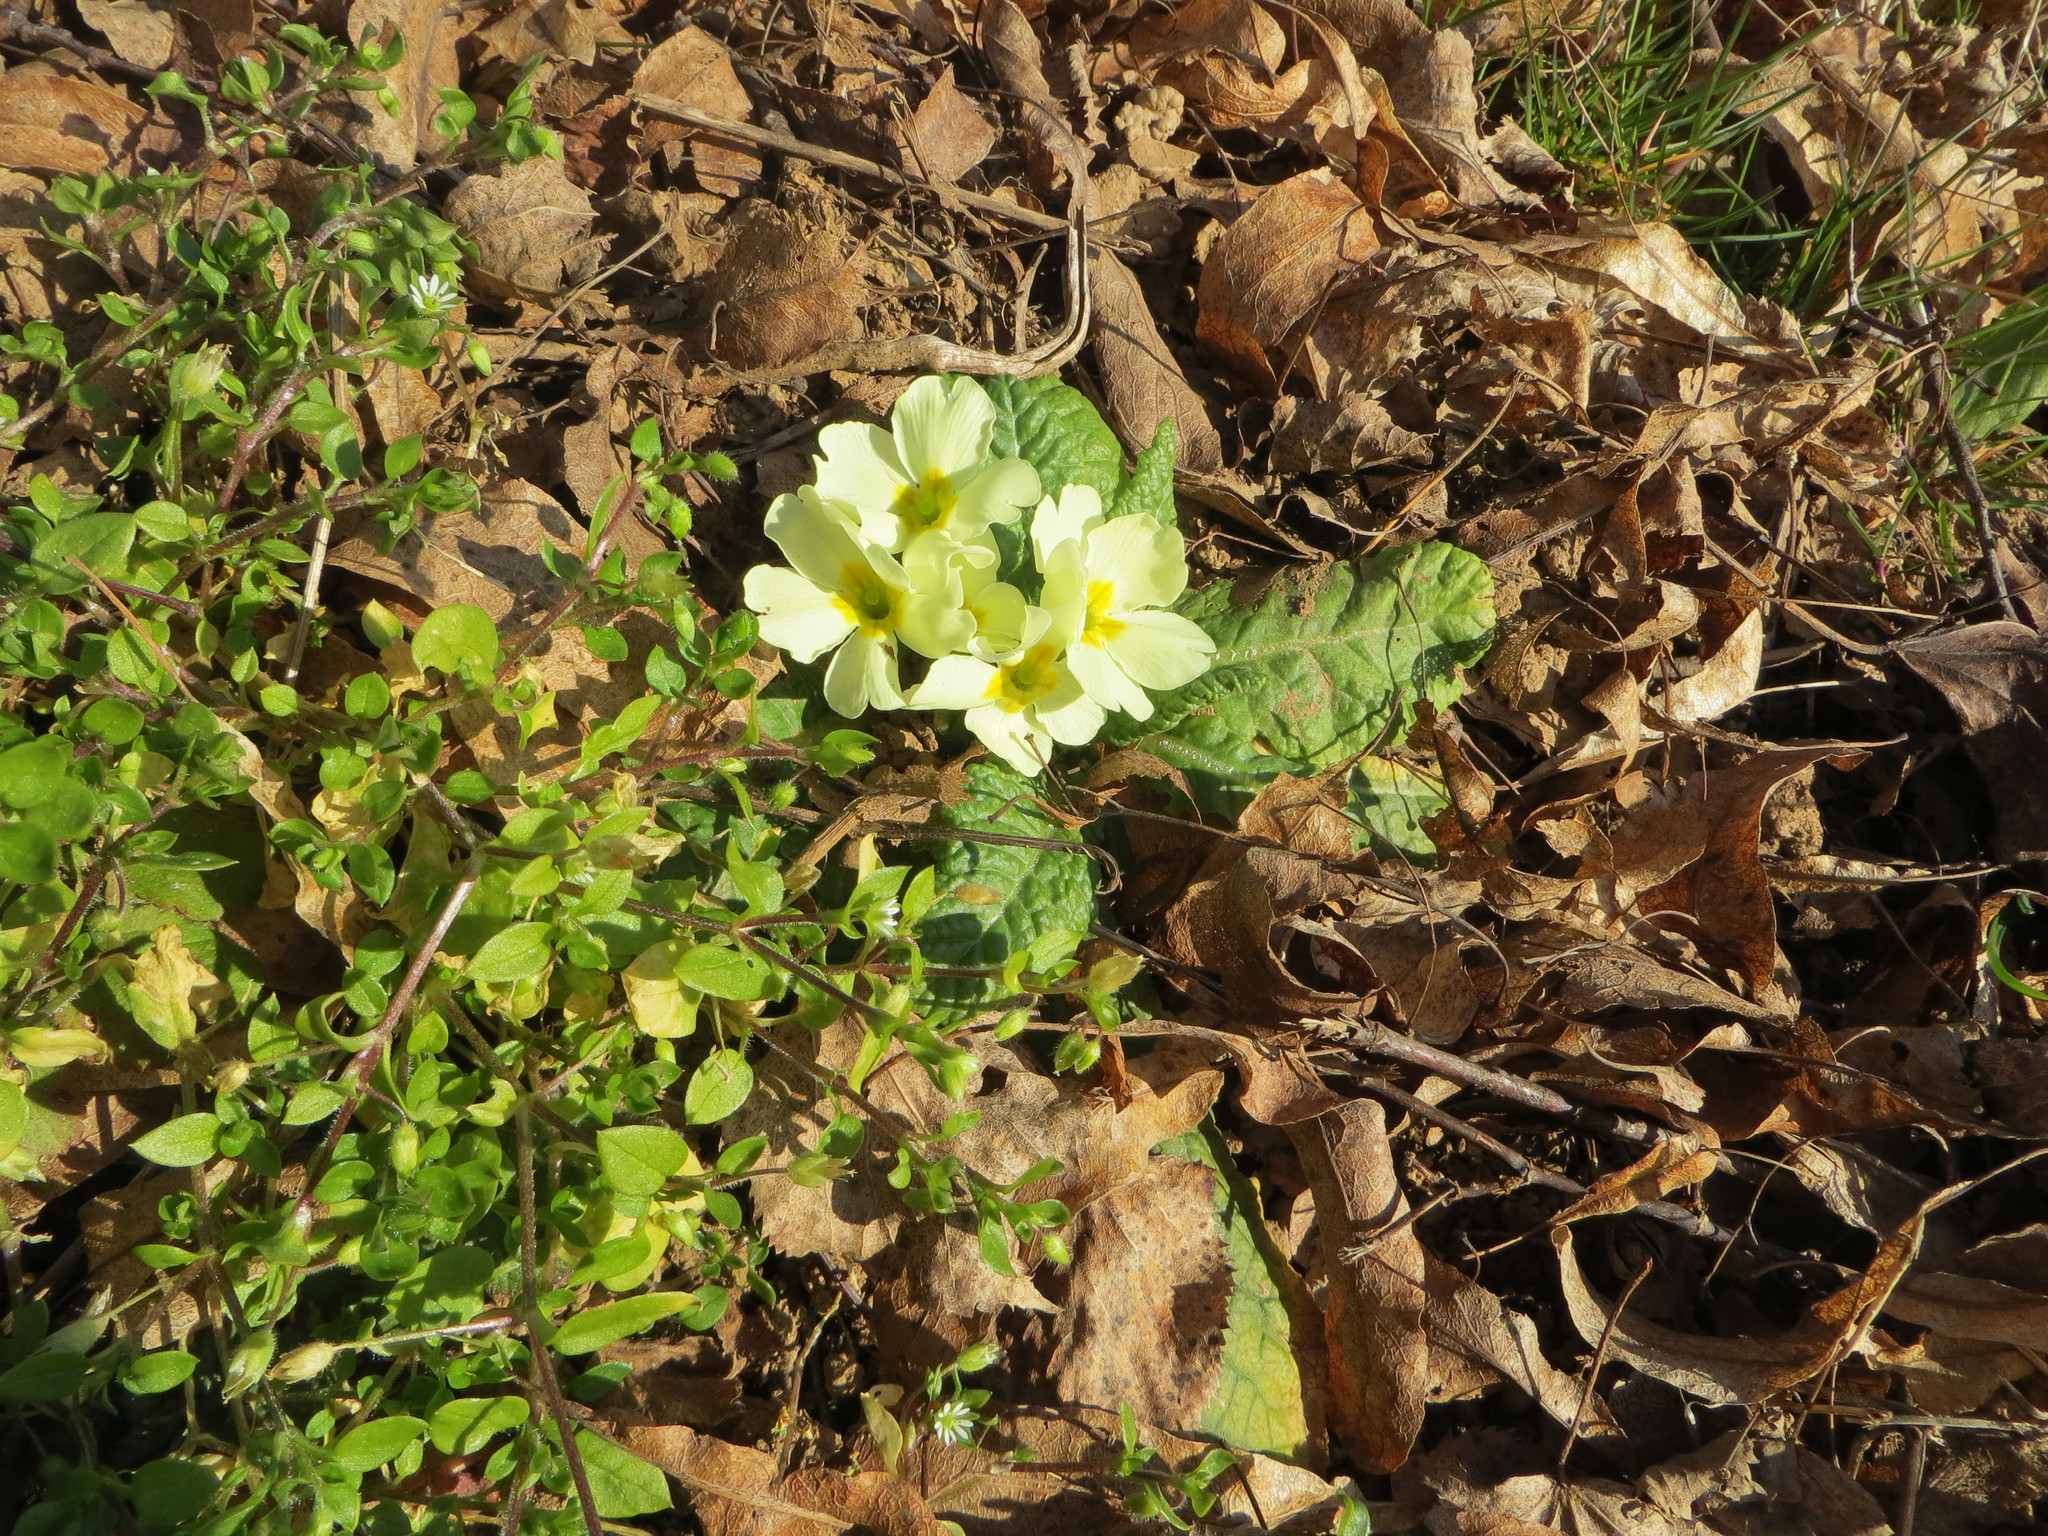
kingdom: Plantae
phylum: Tracheophyta
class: Magnoliopsida
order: Ericales
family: Primulaceae
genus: Primula
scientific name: Primula vulgaris
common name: Primrose
